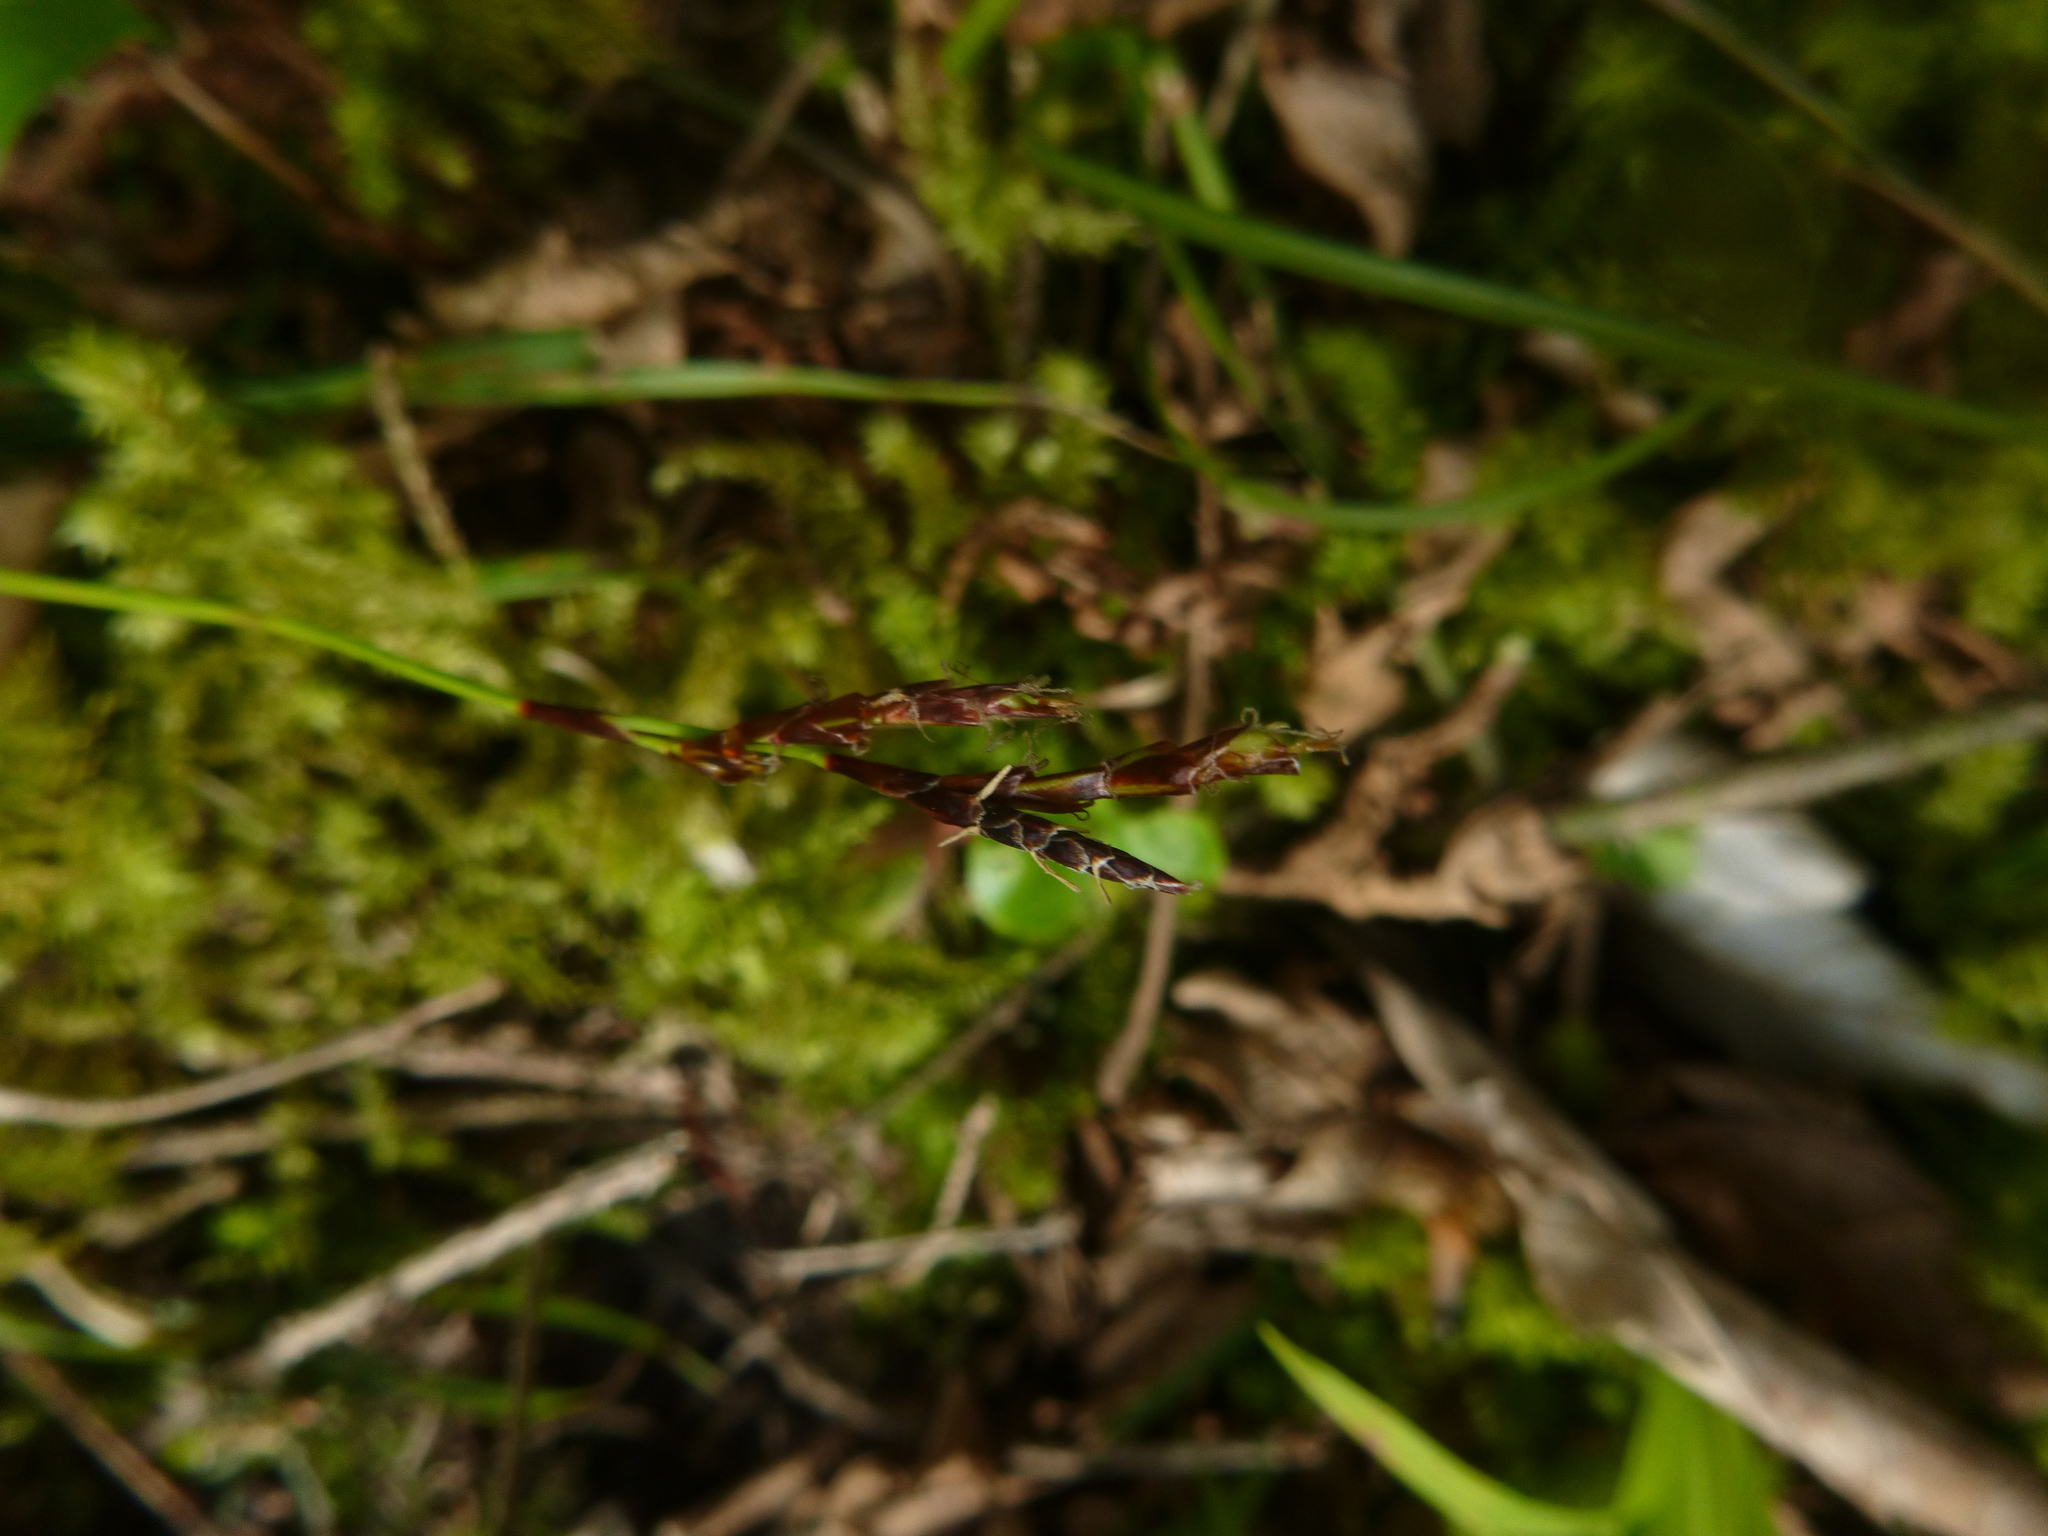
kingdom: Plantae
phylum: Tracheophyta
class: Liliopsida
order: Poales
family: Cyperaceae
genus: Carex
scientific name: Carex digitata
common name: Fingered sedge
